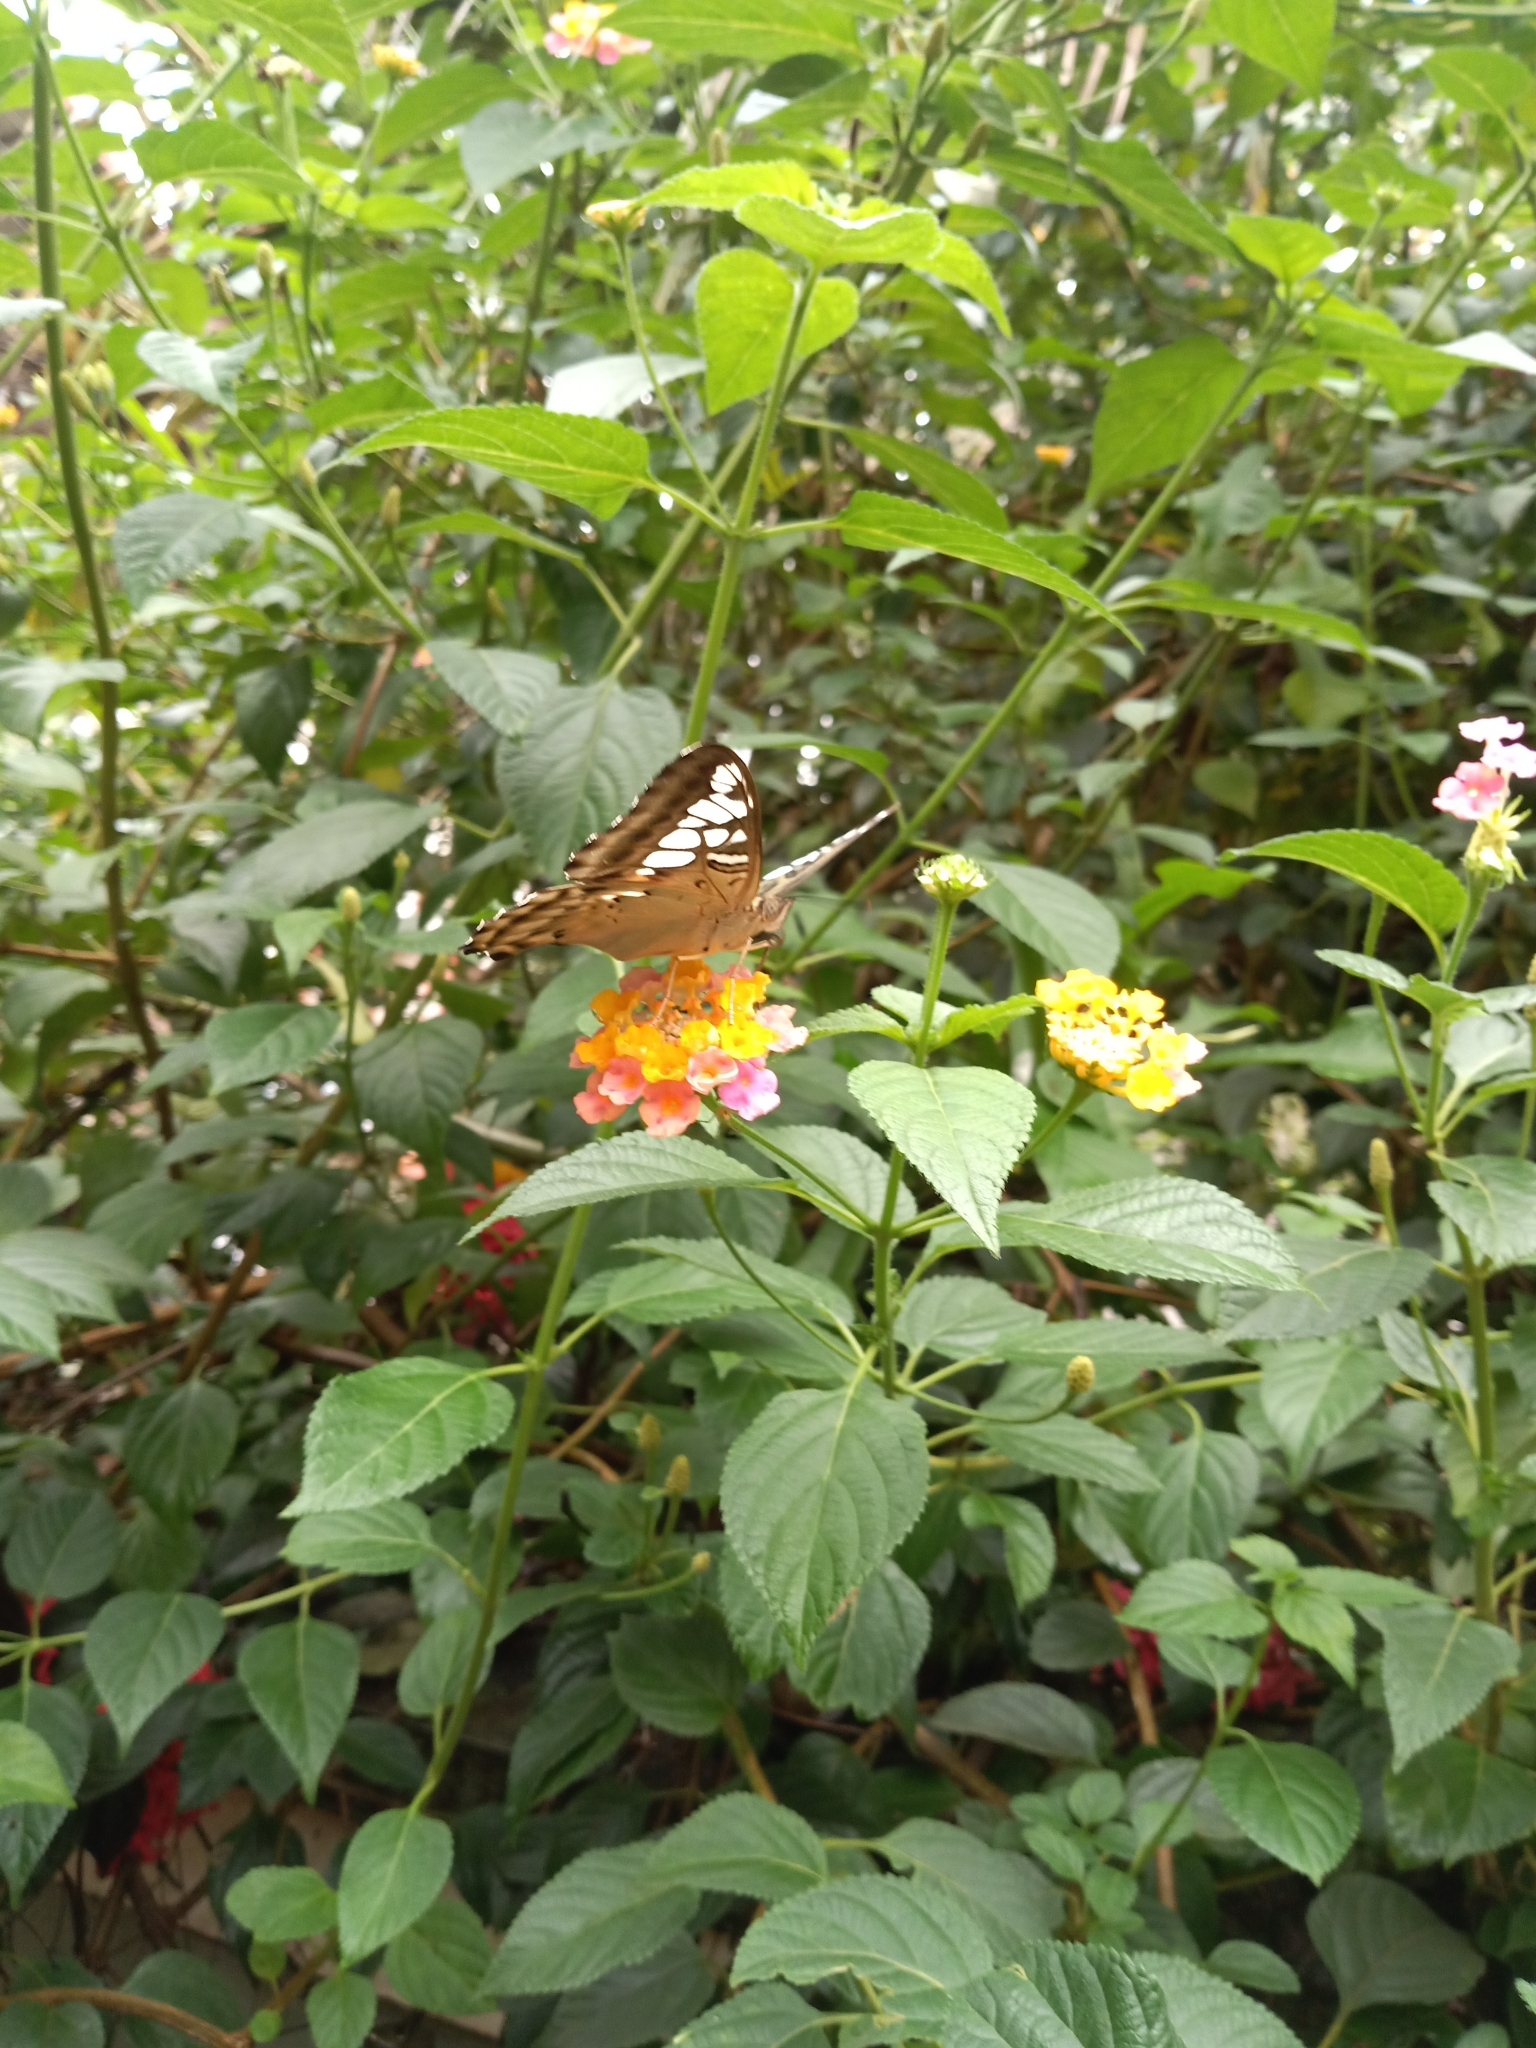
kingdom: Animalia
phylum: Arthropoda
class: Insecta
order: Lepidoptera
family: Nymphalidae
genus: Kallima
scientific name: Kallima sylvia
